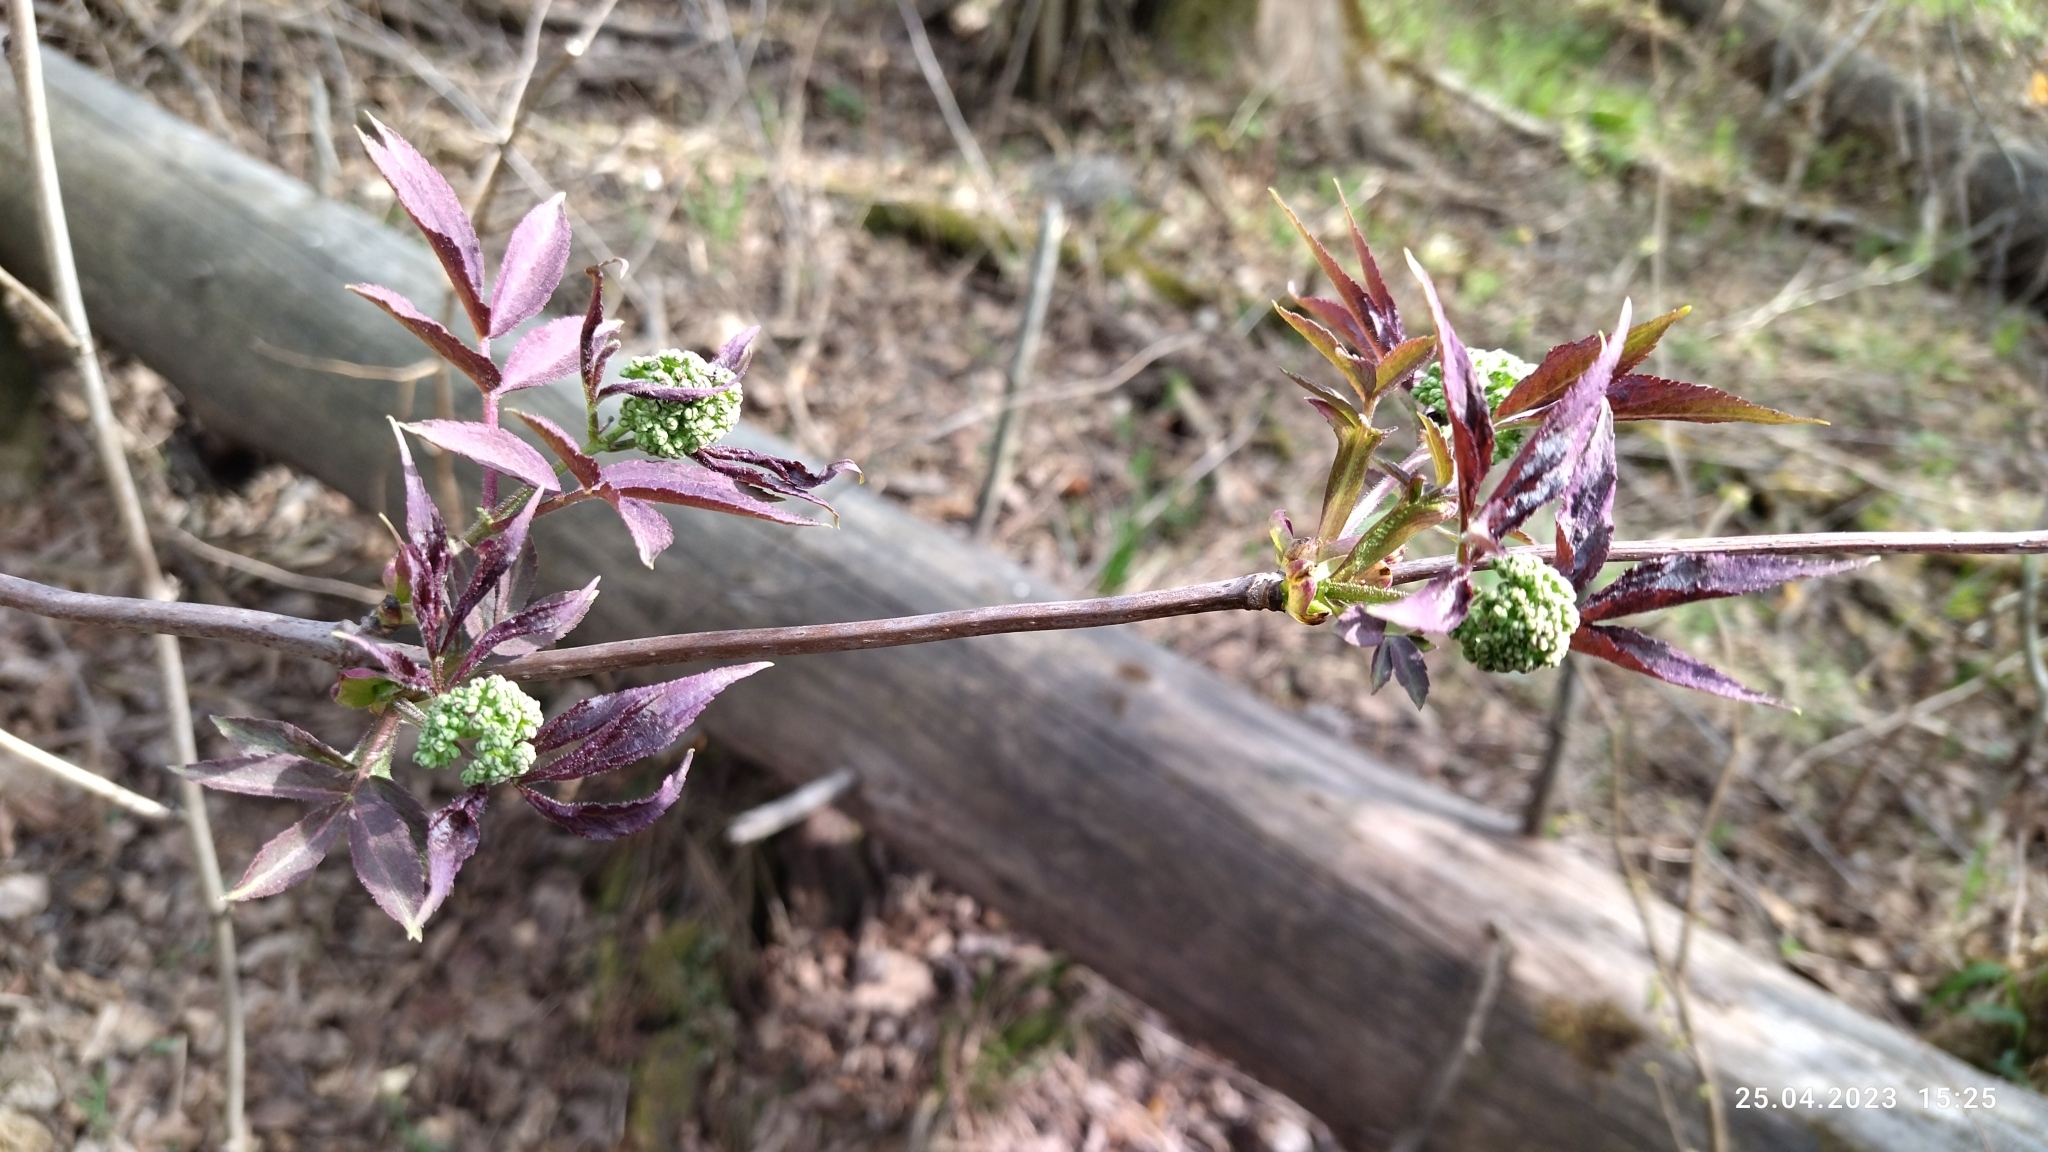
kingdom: Plantae
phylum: Tracheophyta
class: Magnoliopsida
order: Dipsacales
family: Viburnaceae
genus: Sambucus
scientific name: Sambucus racemosa
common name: Red-berried elder
